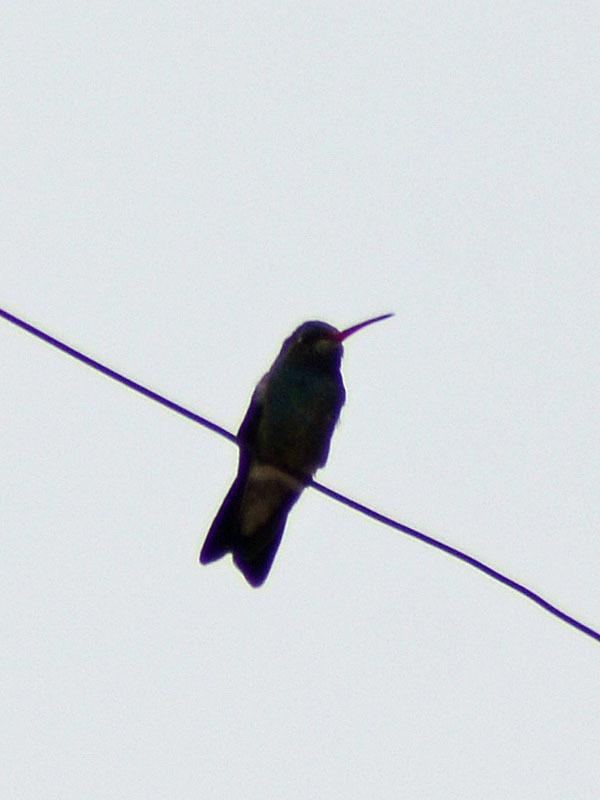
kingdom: Animalia
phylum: Chordata
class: Aves
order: Apodiformes
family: Trochilidae
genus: Cynanthus
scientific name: Cynanthus latirostris
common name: Broad-billed hummingbird
